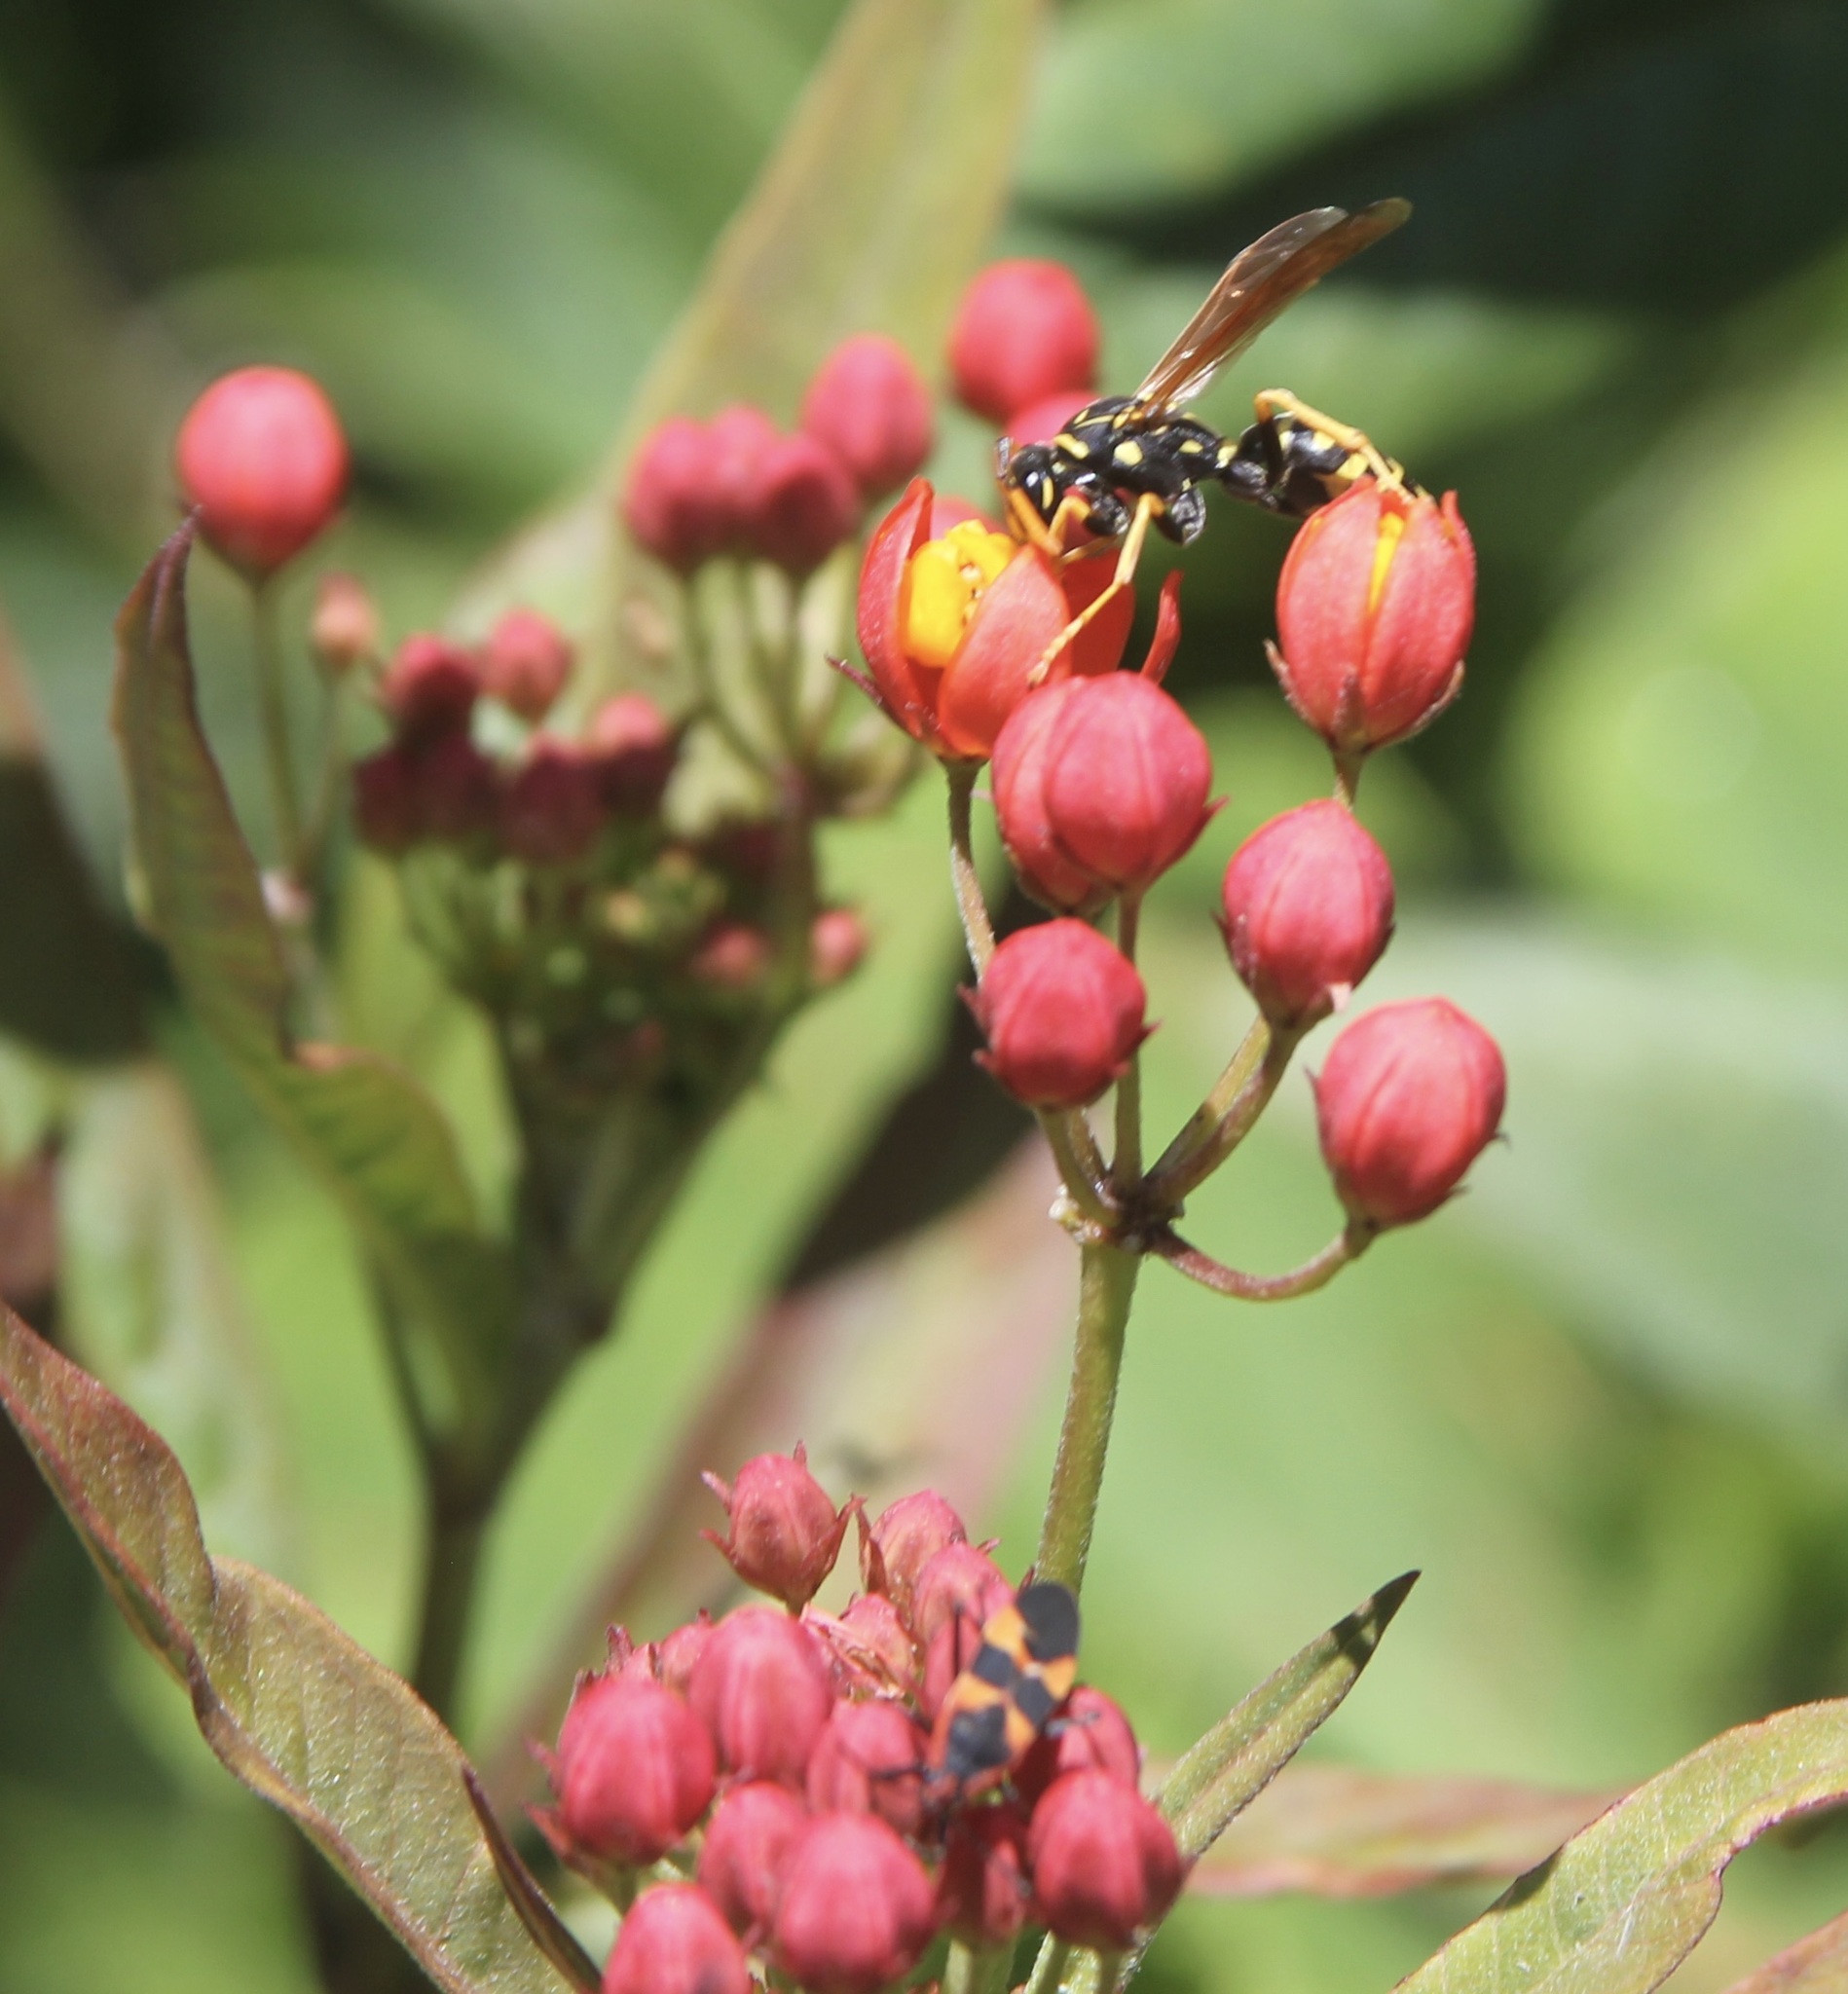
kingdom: Animalia
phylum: Arthropoda
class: Insecta
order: Hemiptera
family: Lygaeidae
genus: Oncopeltus
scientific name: Oncopeltus fasciatus
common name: Large milkweed bug
